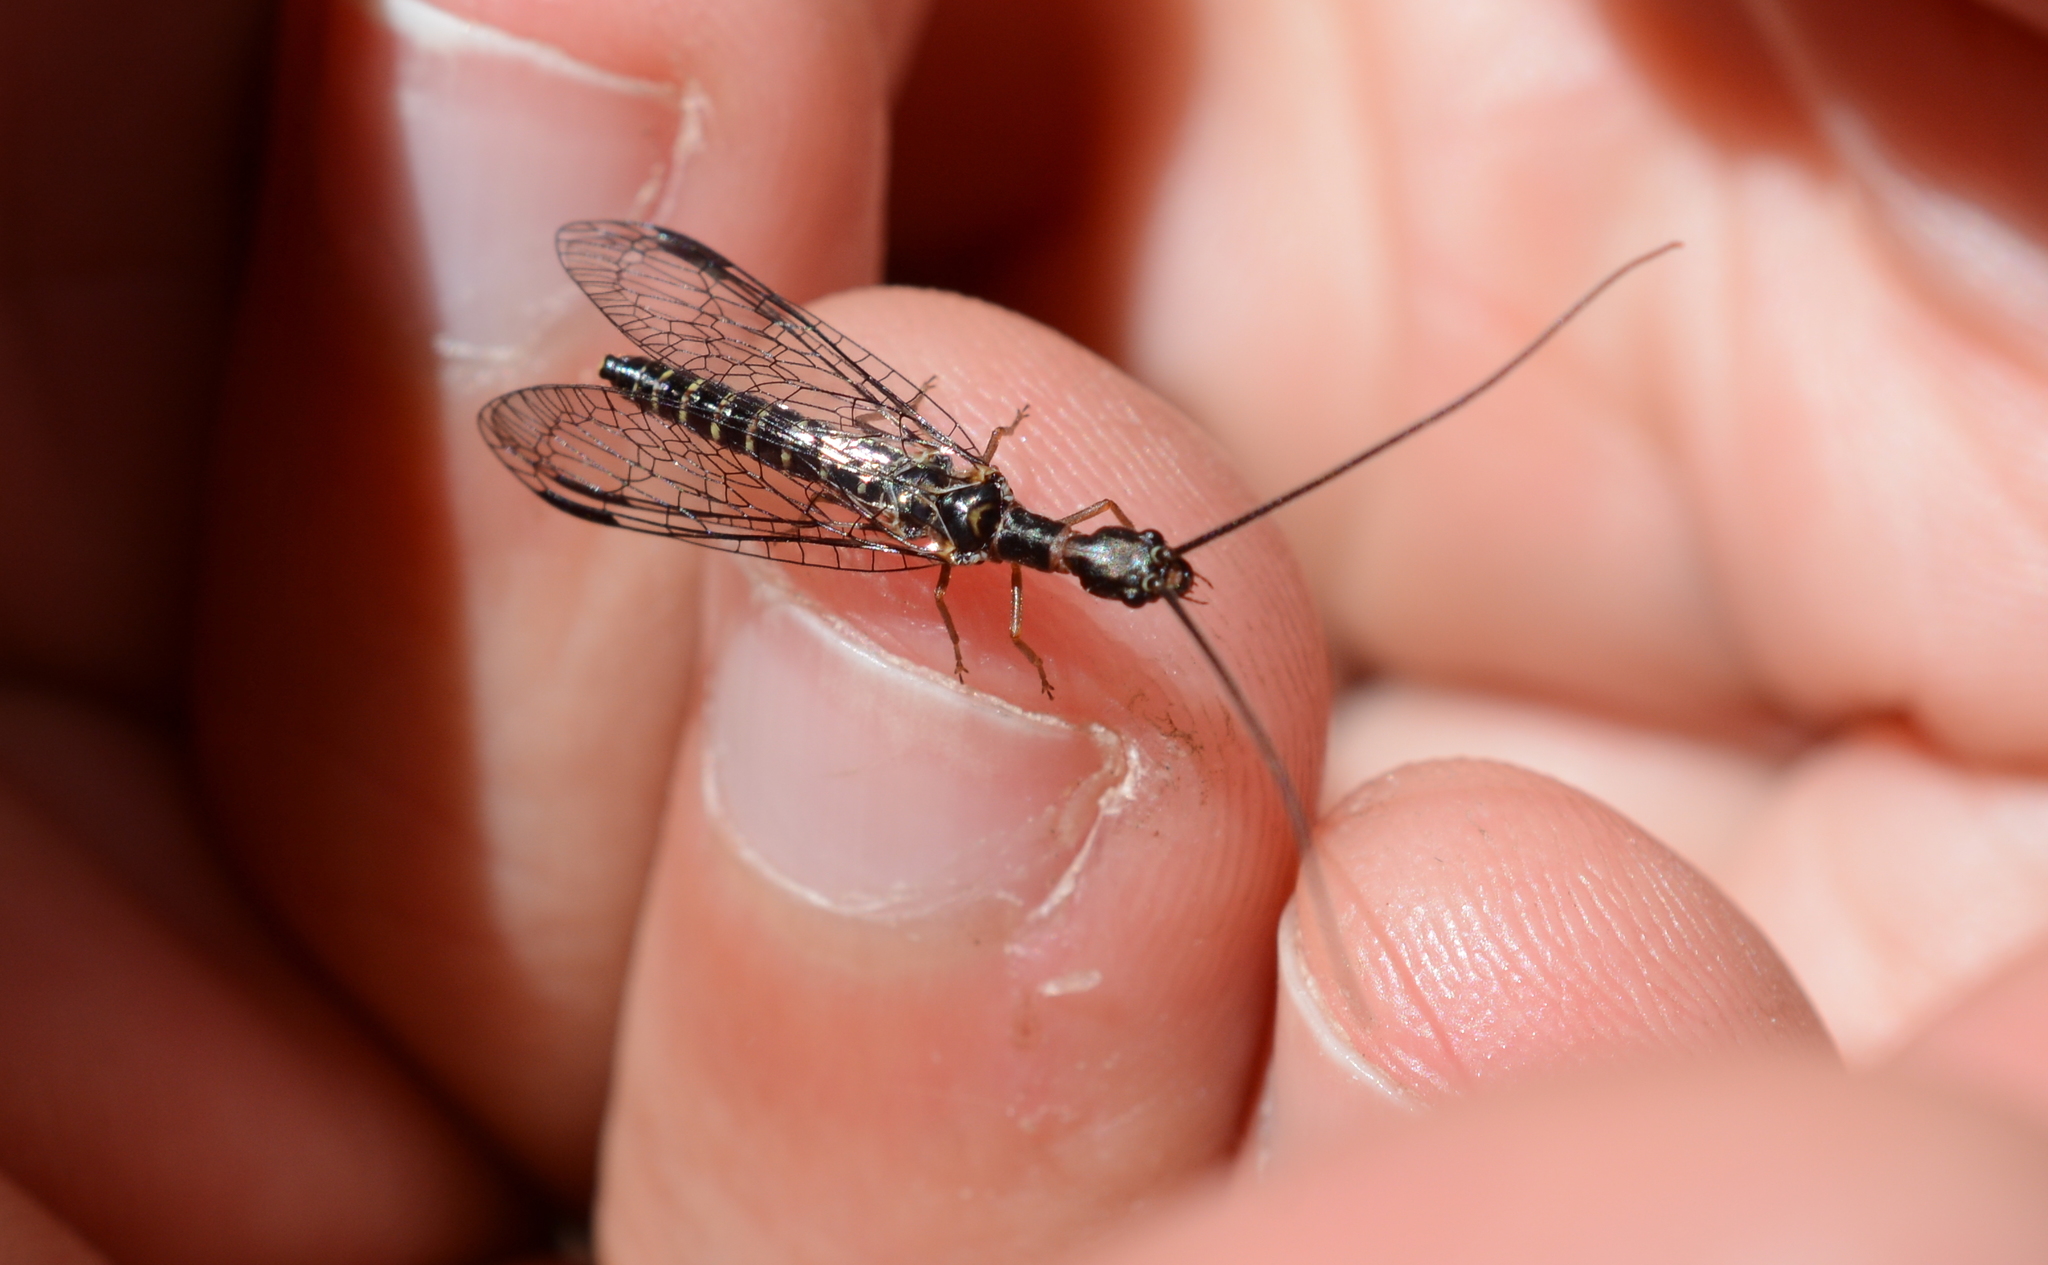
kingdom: Animalia
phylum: Arthropoda
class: Insecta
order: Raphidioptera
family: Inocelliidae
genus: Negha
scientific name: Negha longicornis
